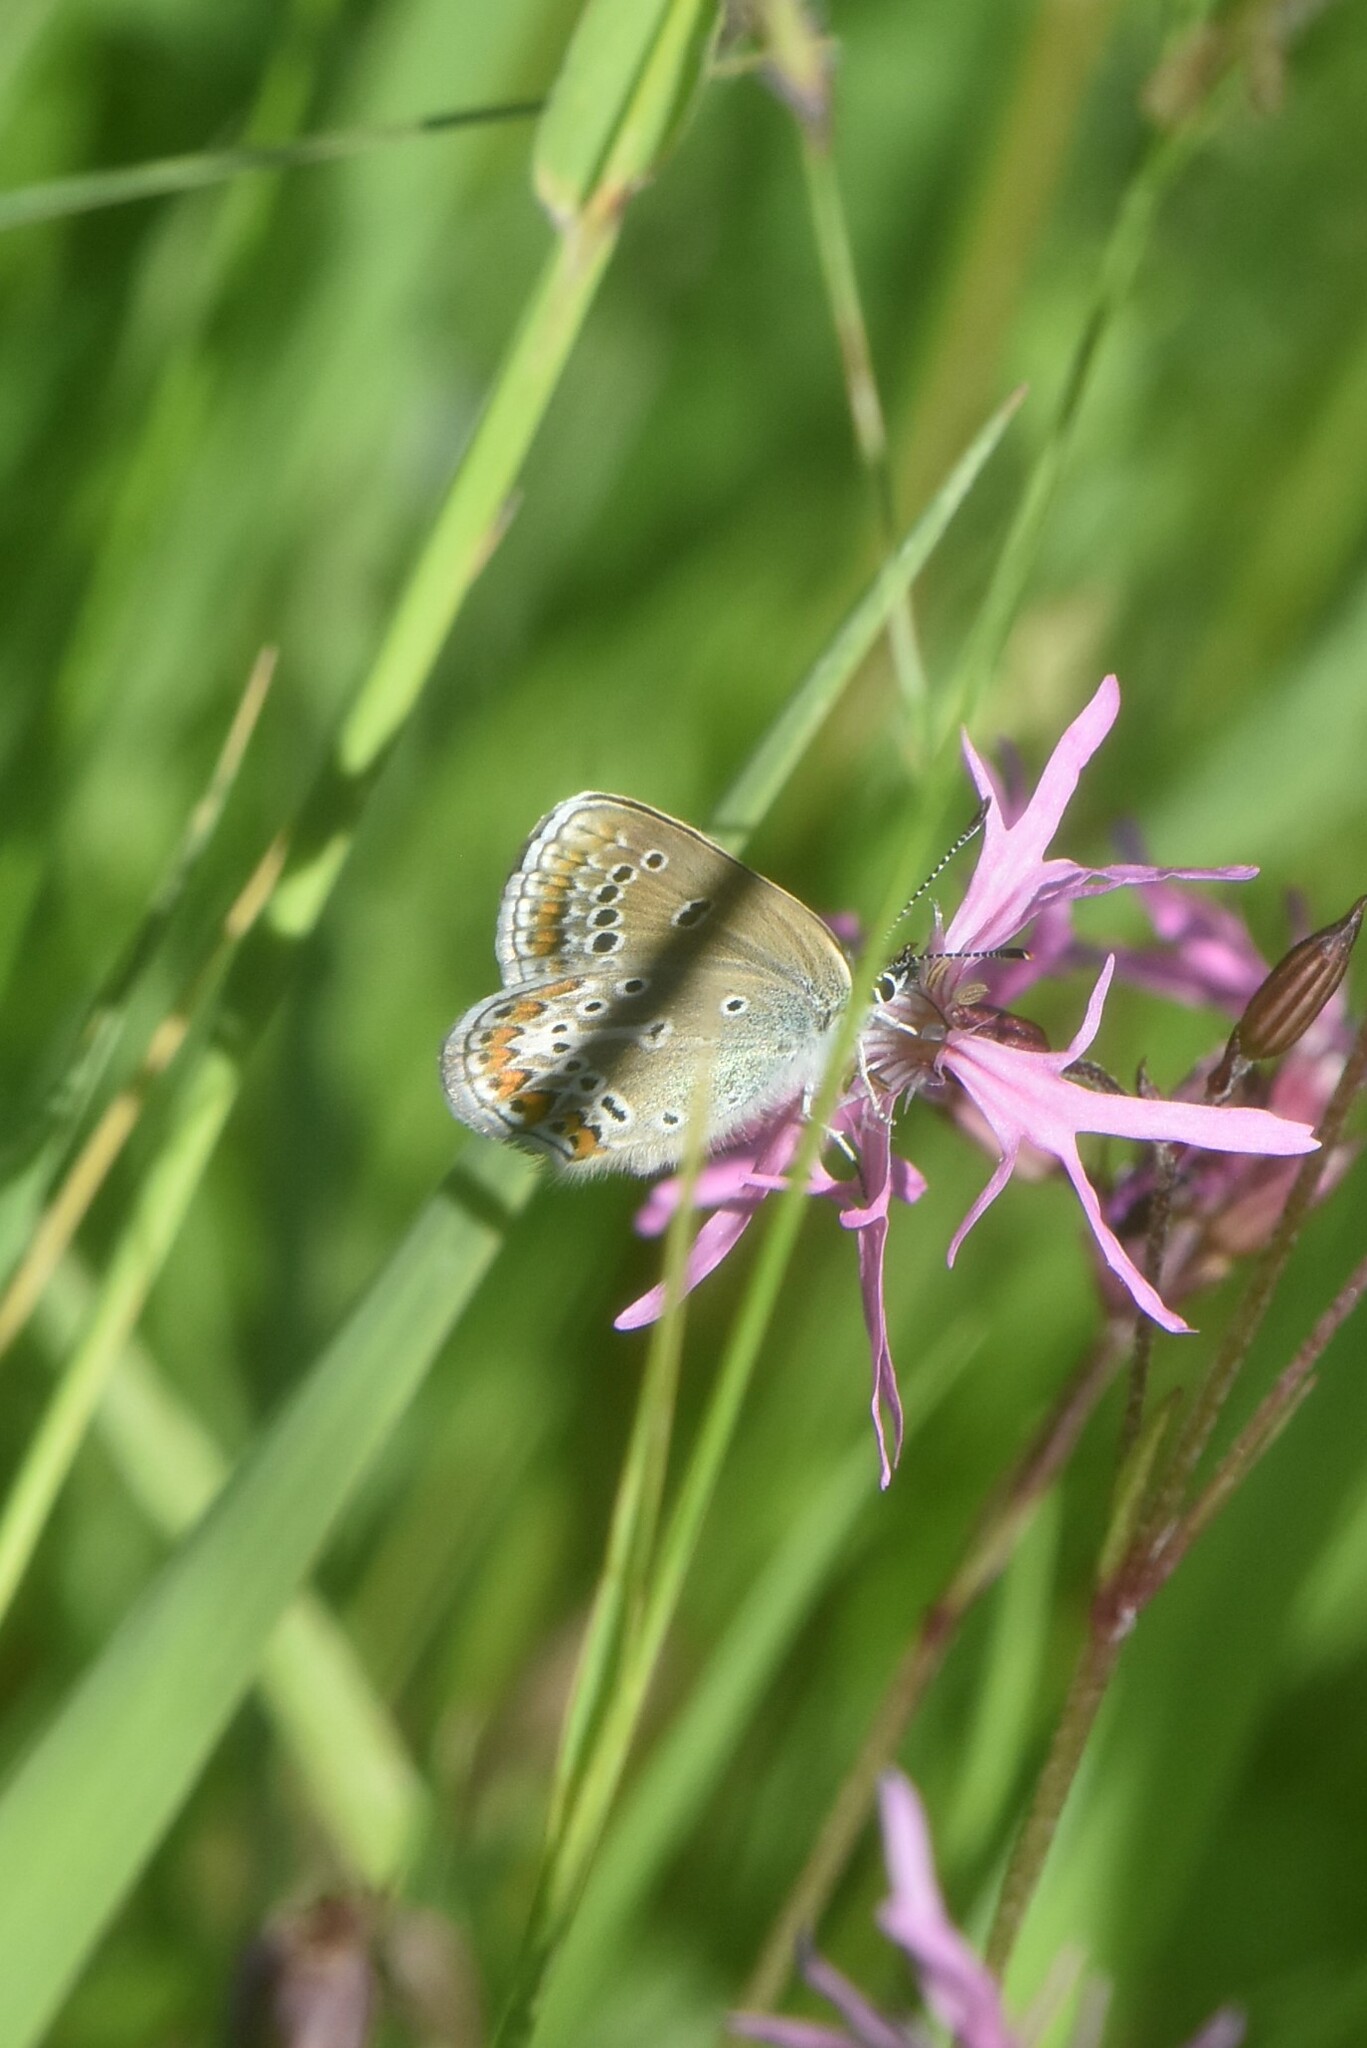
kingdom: Animalia
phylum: Arthropoda
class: Insecta
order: Lepidoptera
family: Lycaenidae
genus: Eumedonia
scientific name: Eumedonia eumedon
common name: Geranium argus
